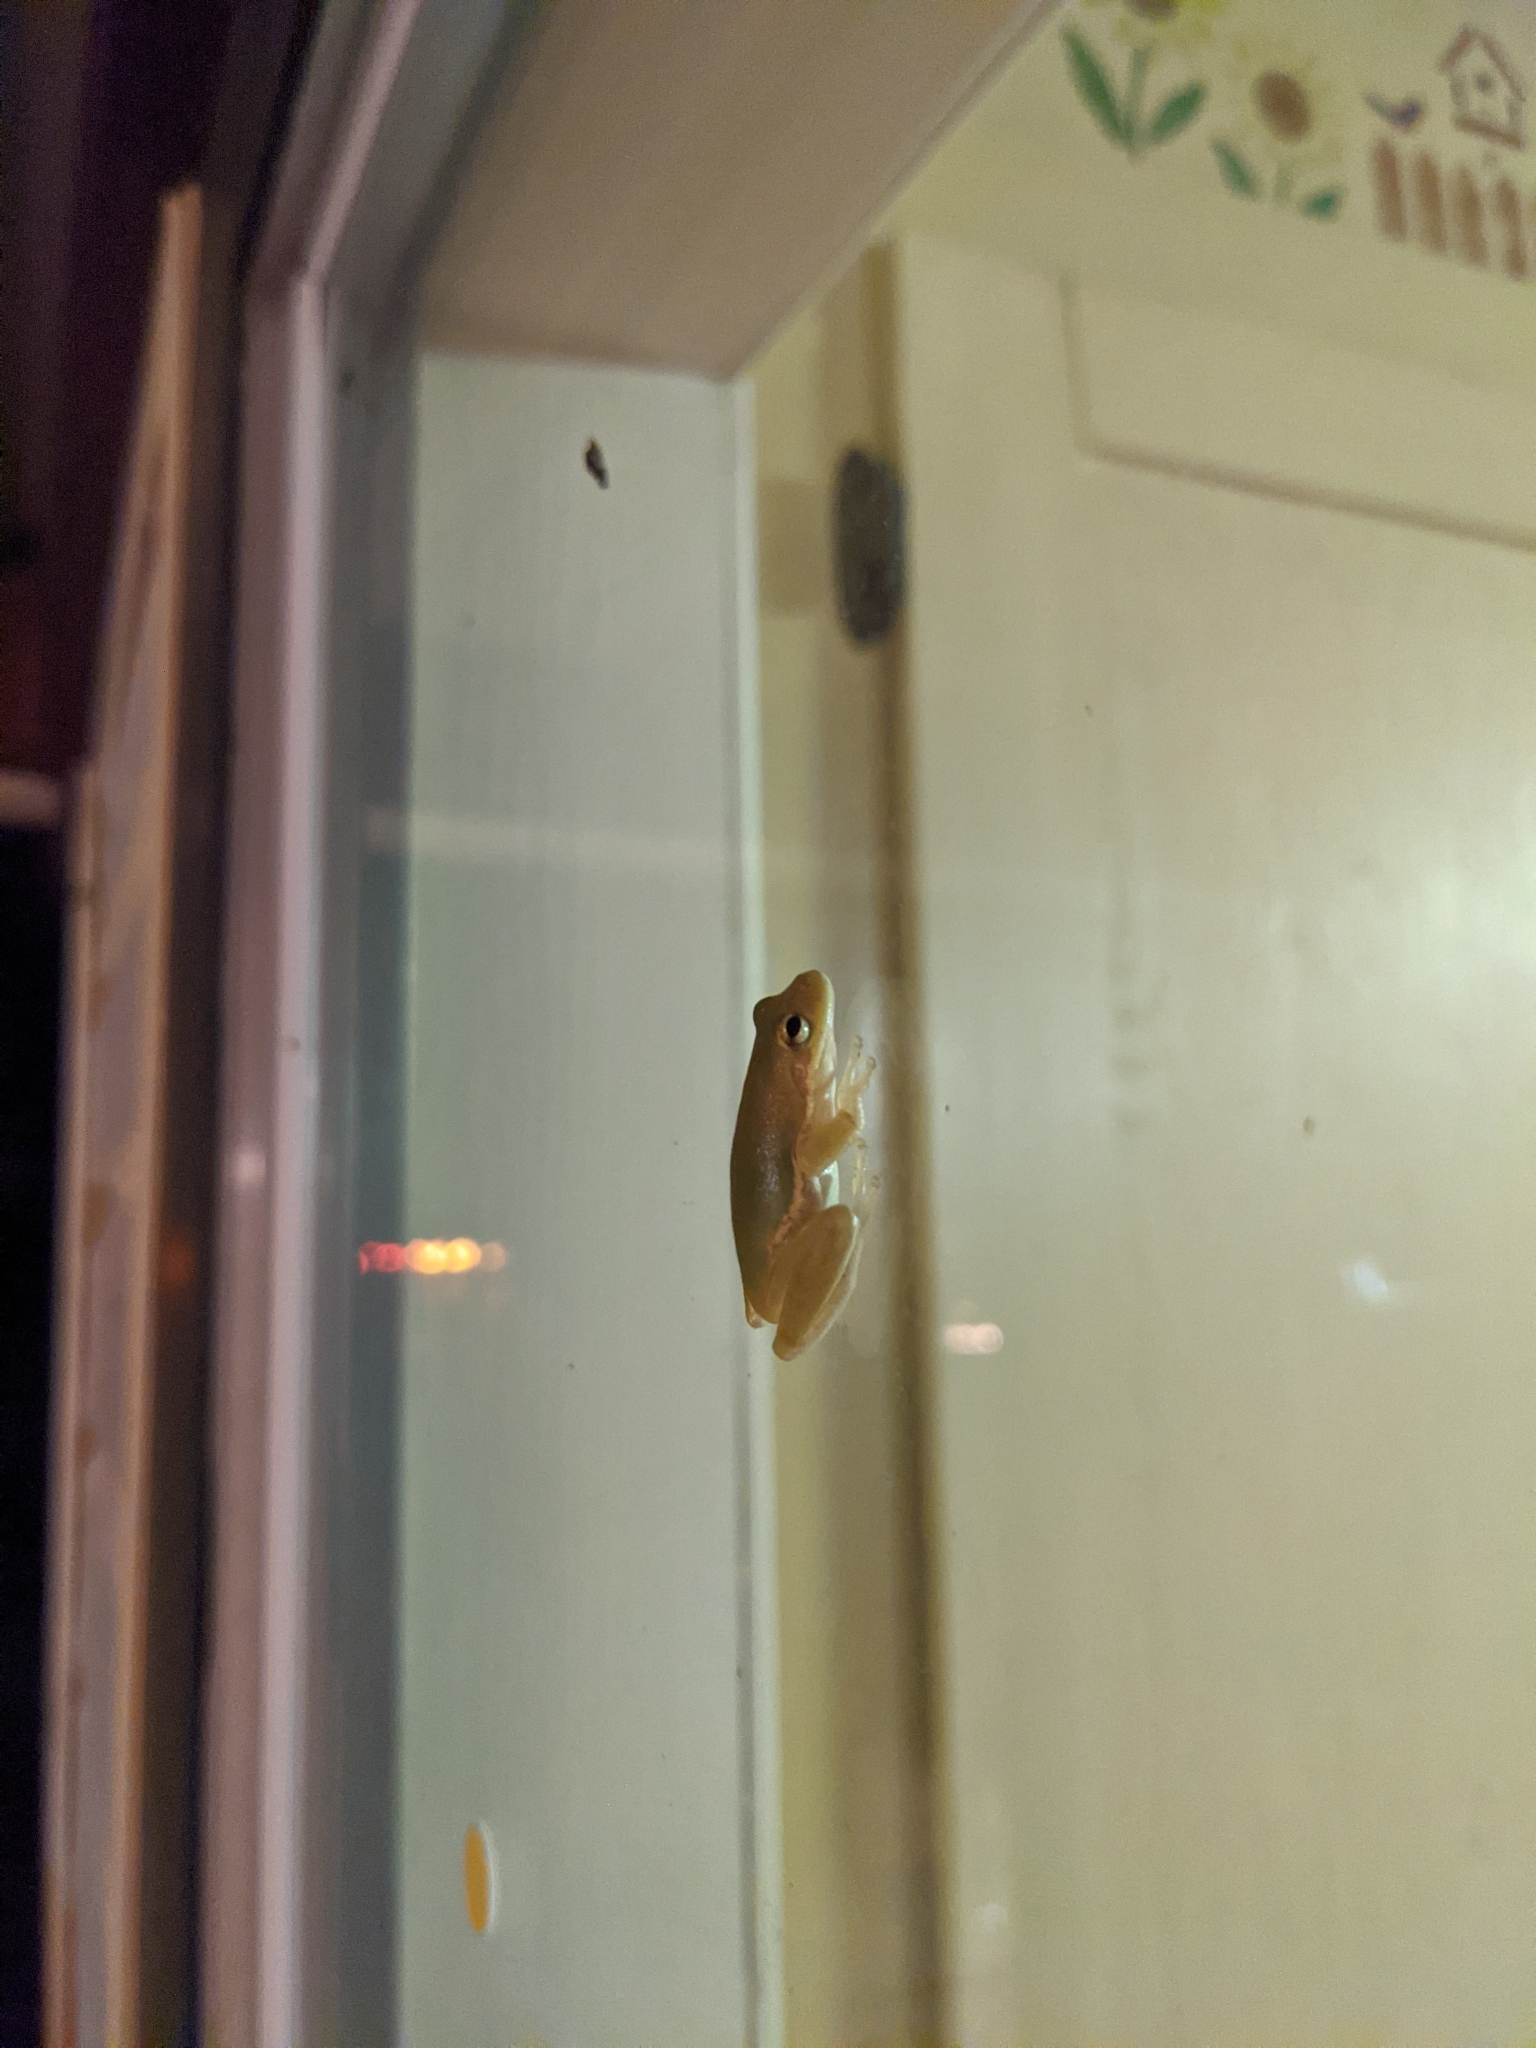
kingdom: Animalia
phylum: Chordata
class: Amphibia
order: Anura
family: Hylidae
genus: Dryophytes
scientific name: Dryophytes squirellus
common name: Squirrel treefrog
